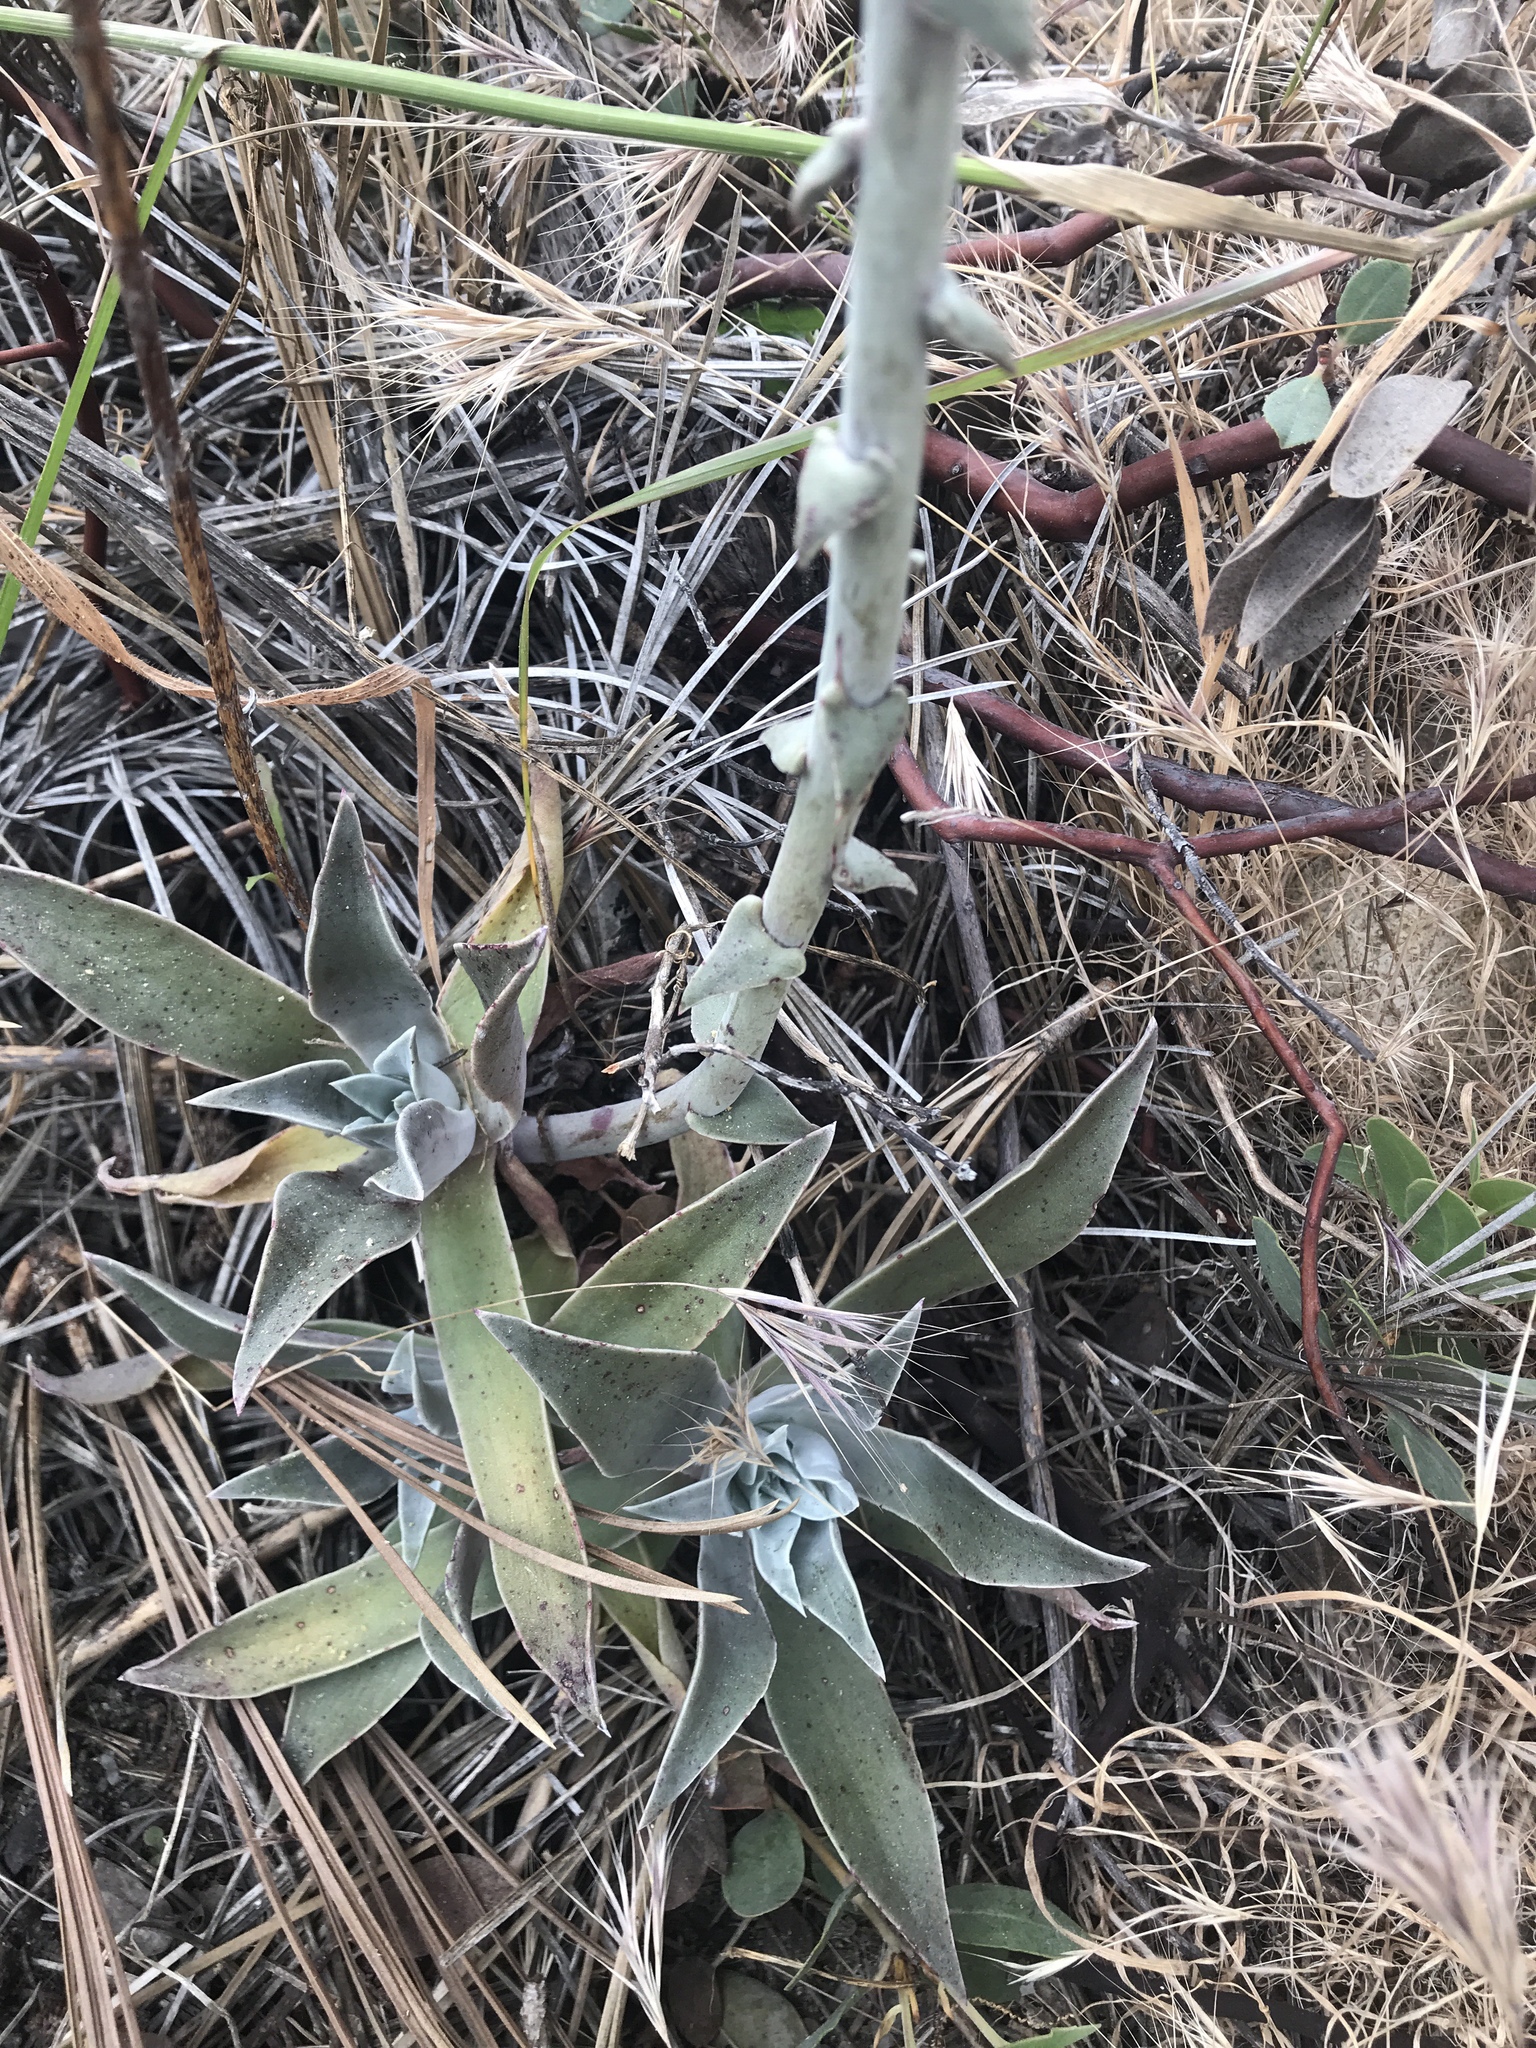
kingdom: Plantae
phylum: Tracheophyta
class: Magnoliopsida
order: Saxifragales
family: Crassulaceae
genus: Dudleya
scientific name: Dudleya lanceolata
